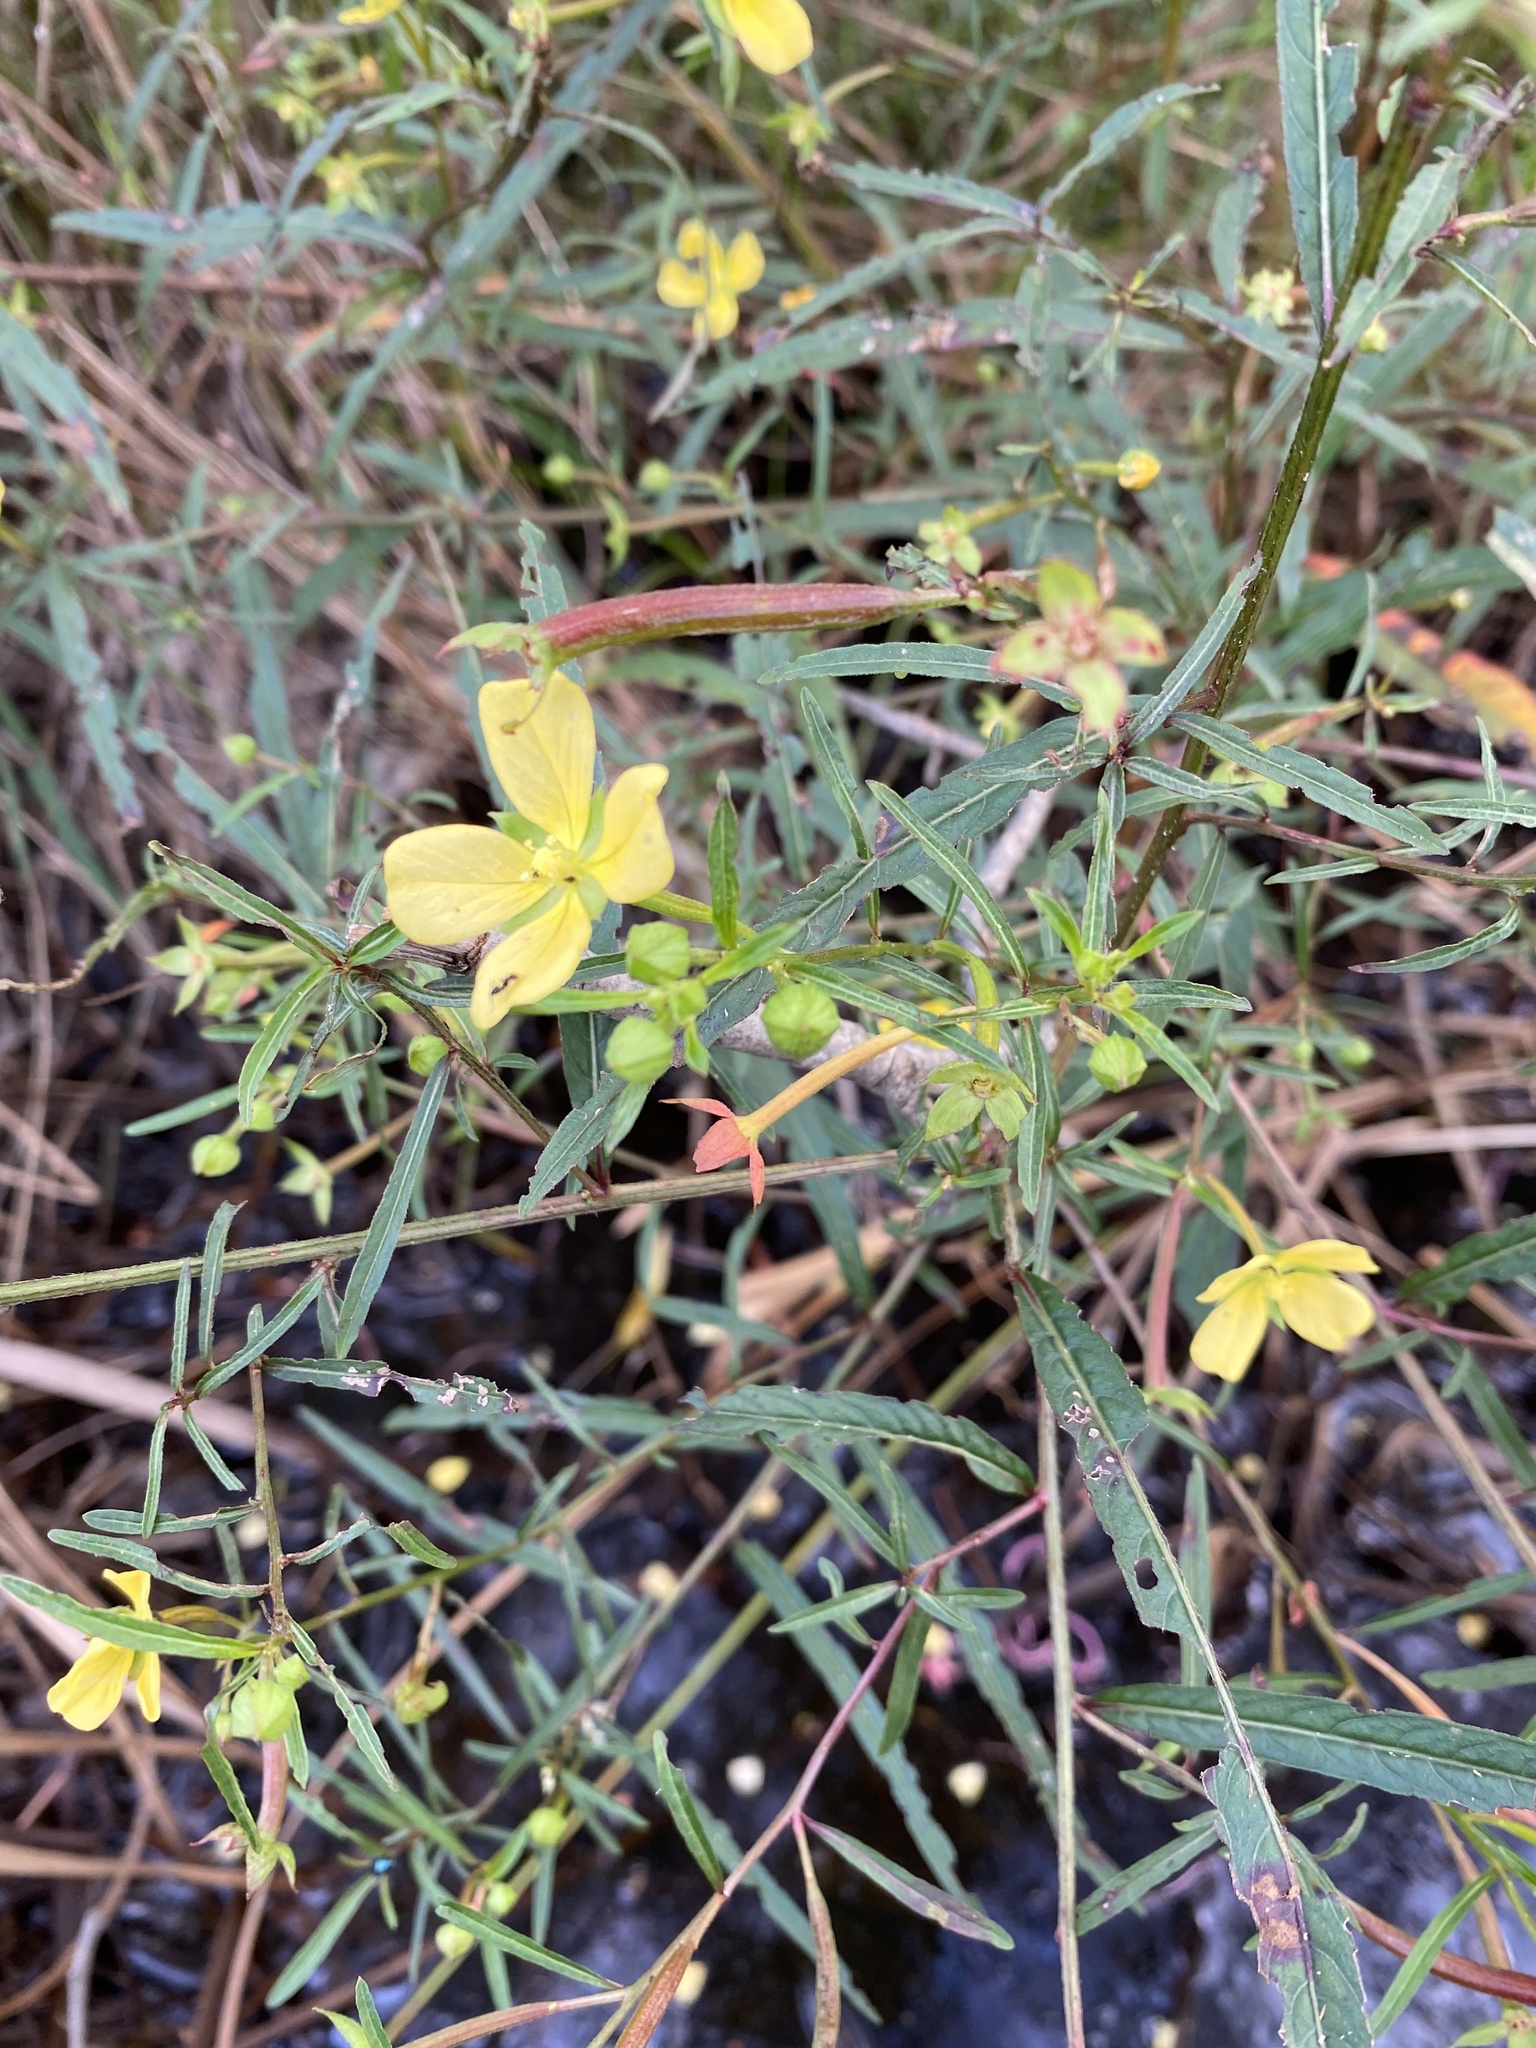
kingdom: Plantae
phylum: Tracheophyta
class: Magnoliopsida
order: Myrtales
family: Onagraceae
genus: Ludwigia
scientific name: Ludwigia octovalvis
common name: Water-primrose
